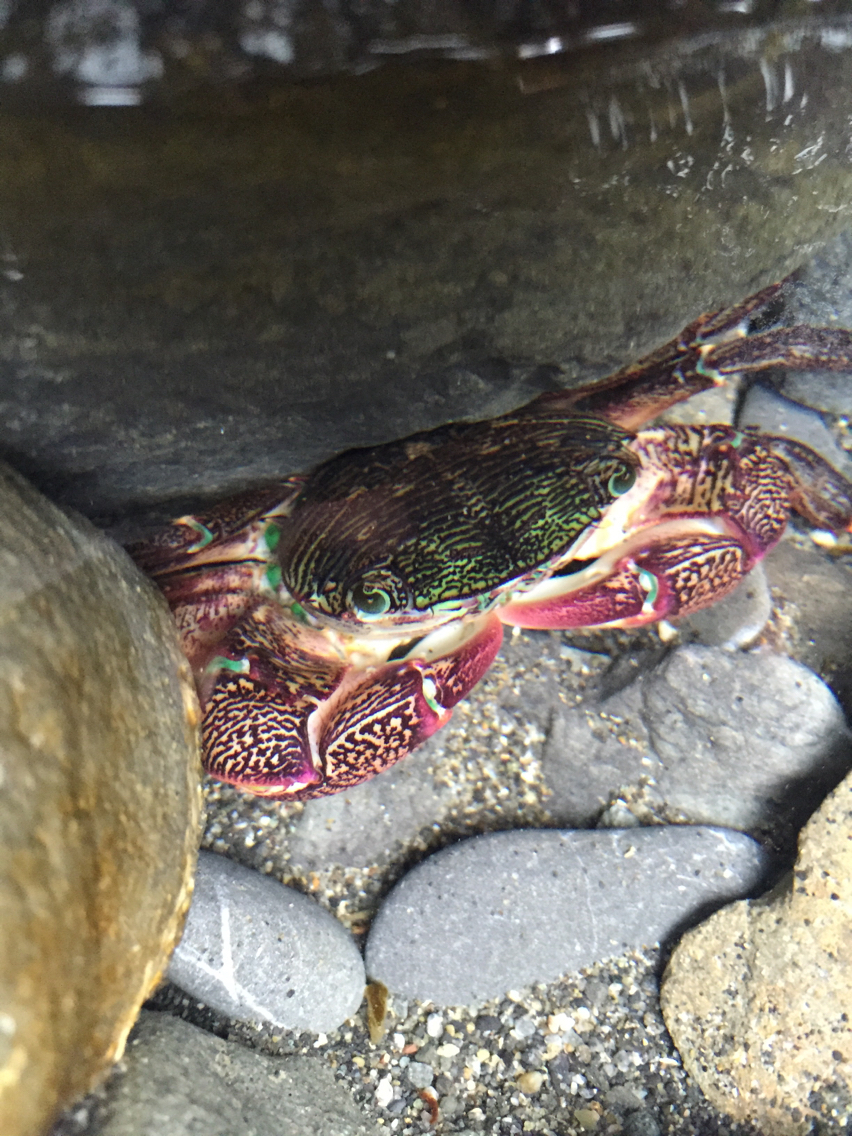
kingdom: Animalia
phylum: Arthropoda
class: Malacostraca
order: Decapoda
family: Grapsidae
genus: Pachygrapsus
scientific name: Pachygrapsus crassipes
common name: Striped shore crab
